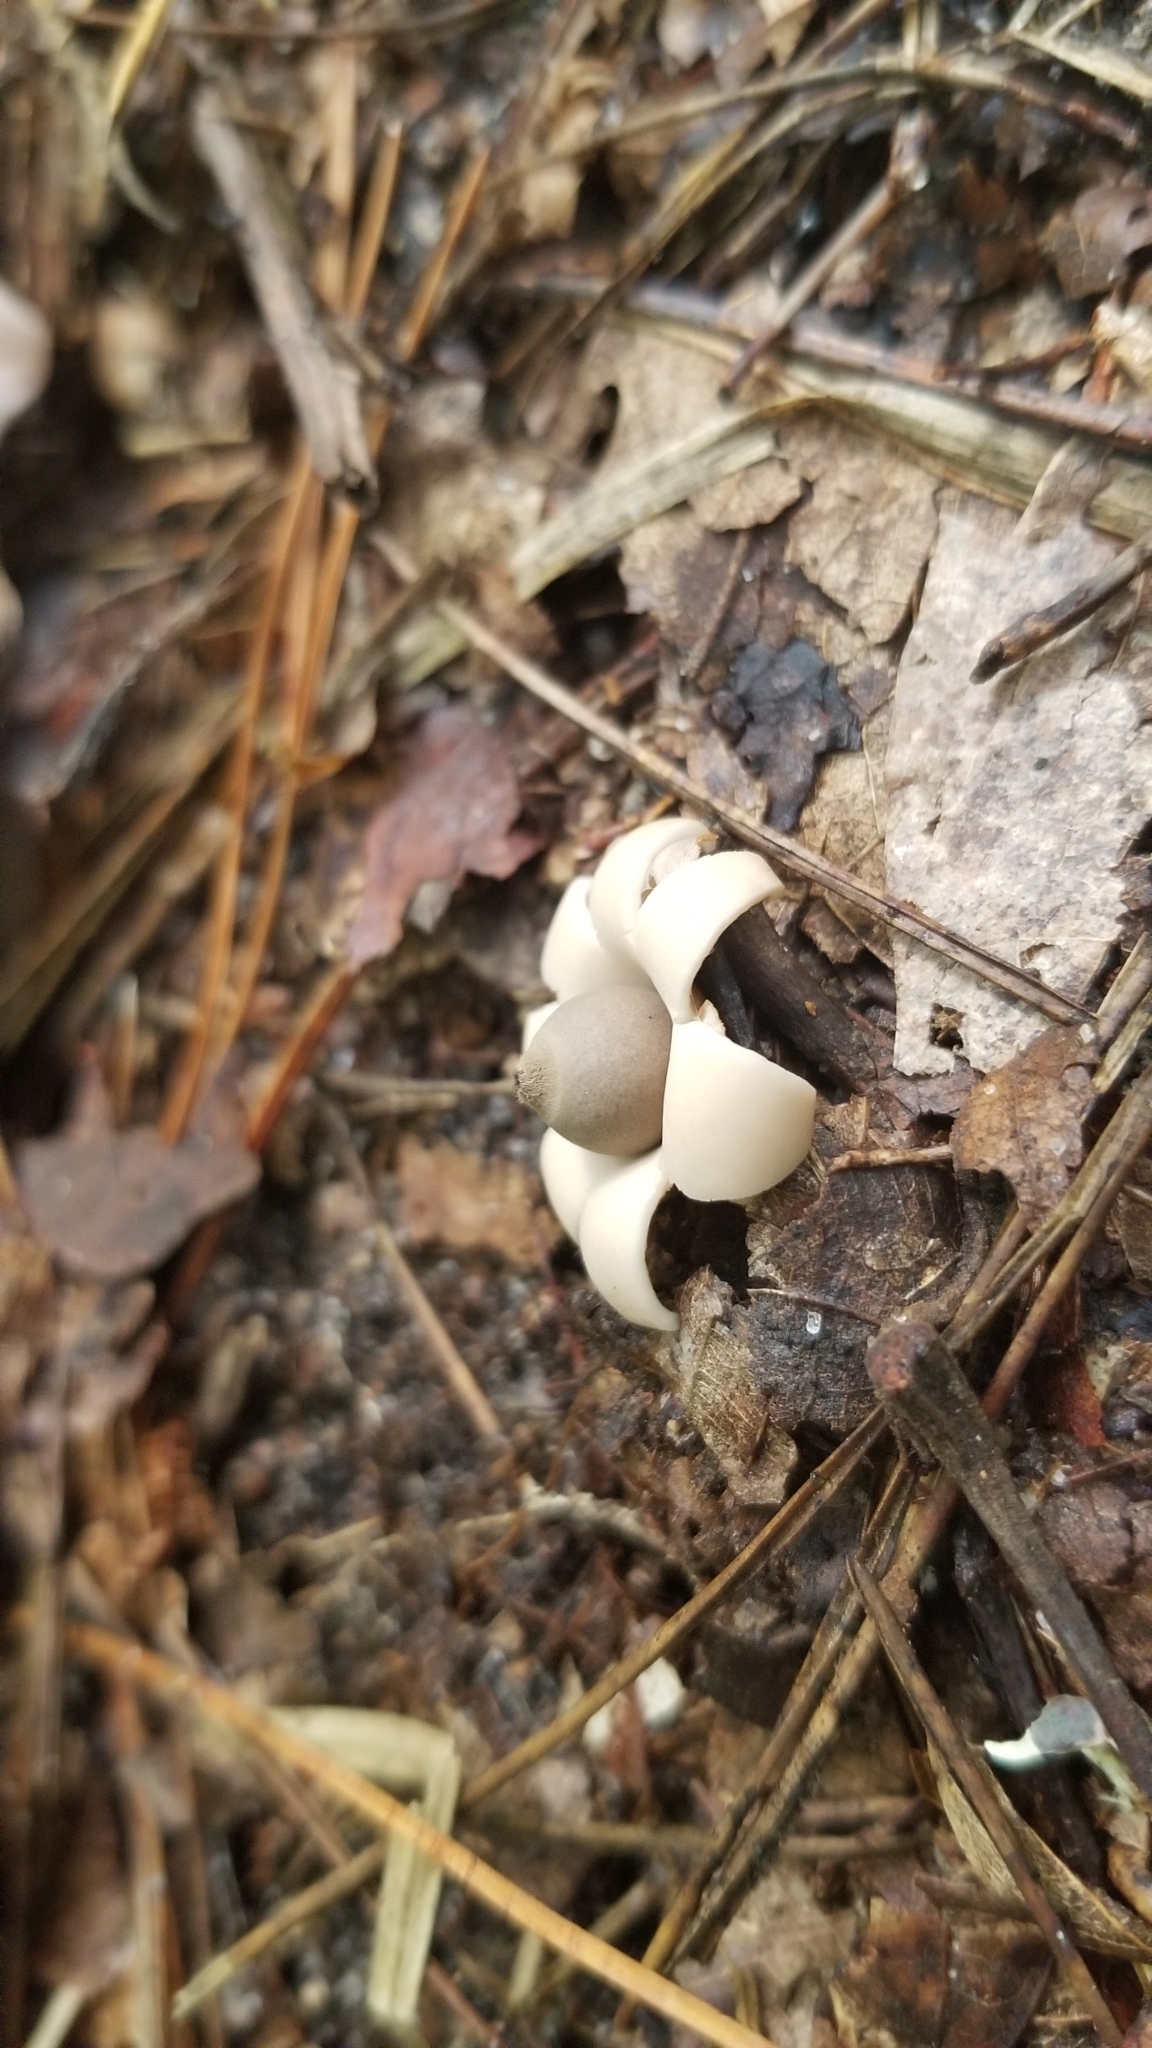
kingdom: Fungi
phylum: Basidiomycota
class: Agaricomycetes
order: Geastrales
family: Geastraceae
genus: Geastrum
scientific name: Geastrum saccatum
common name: Rounded earthstar
